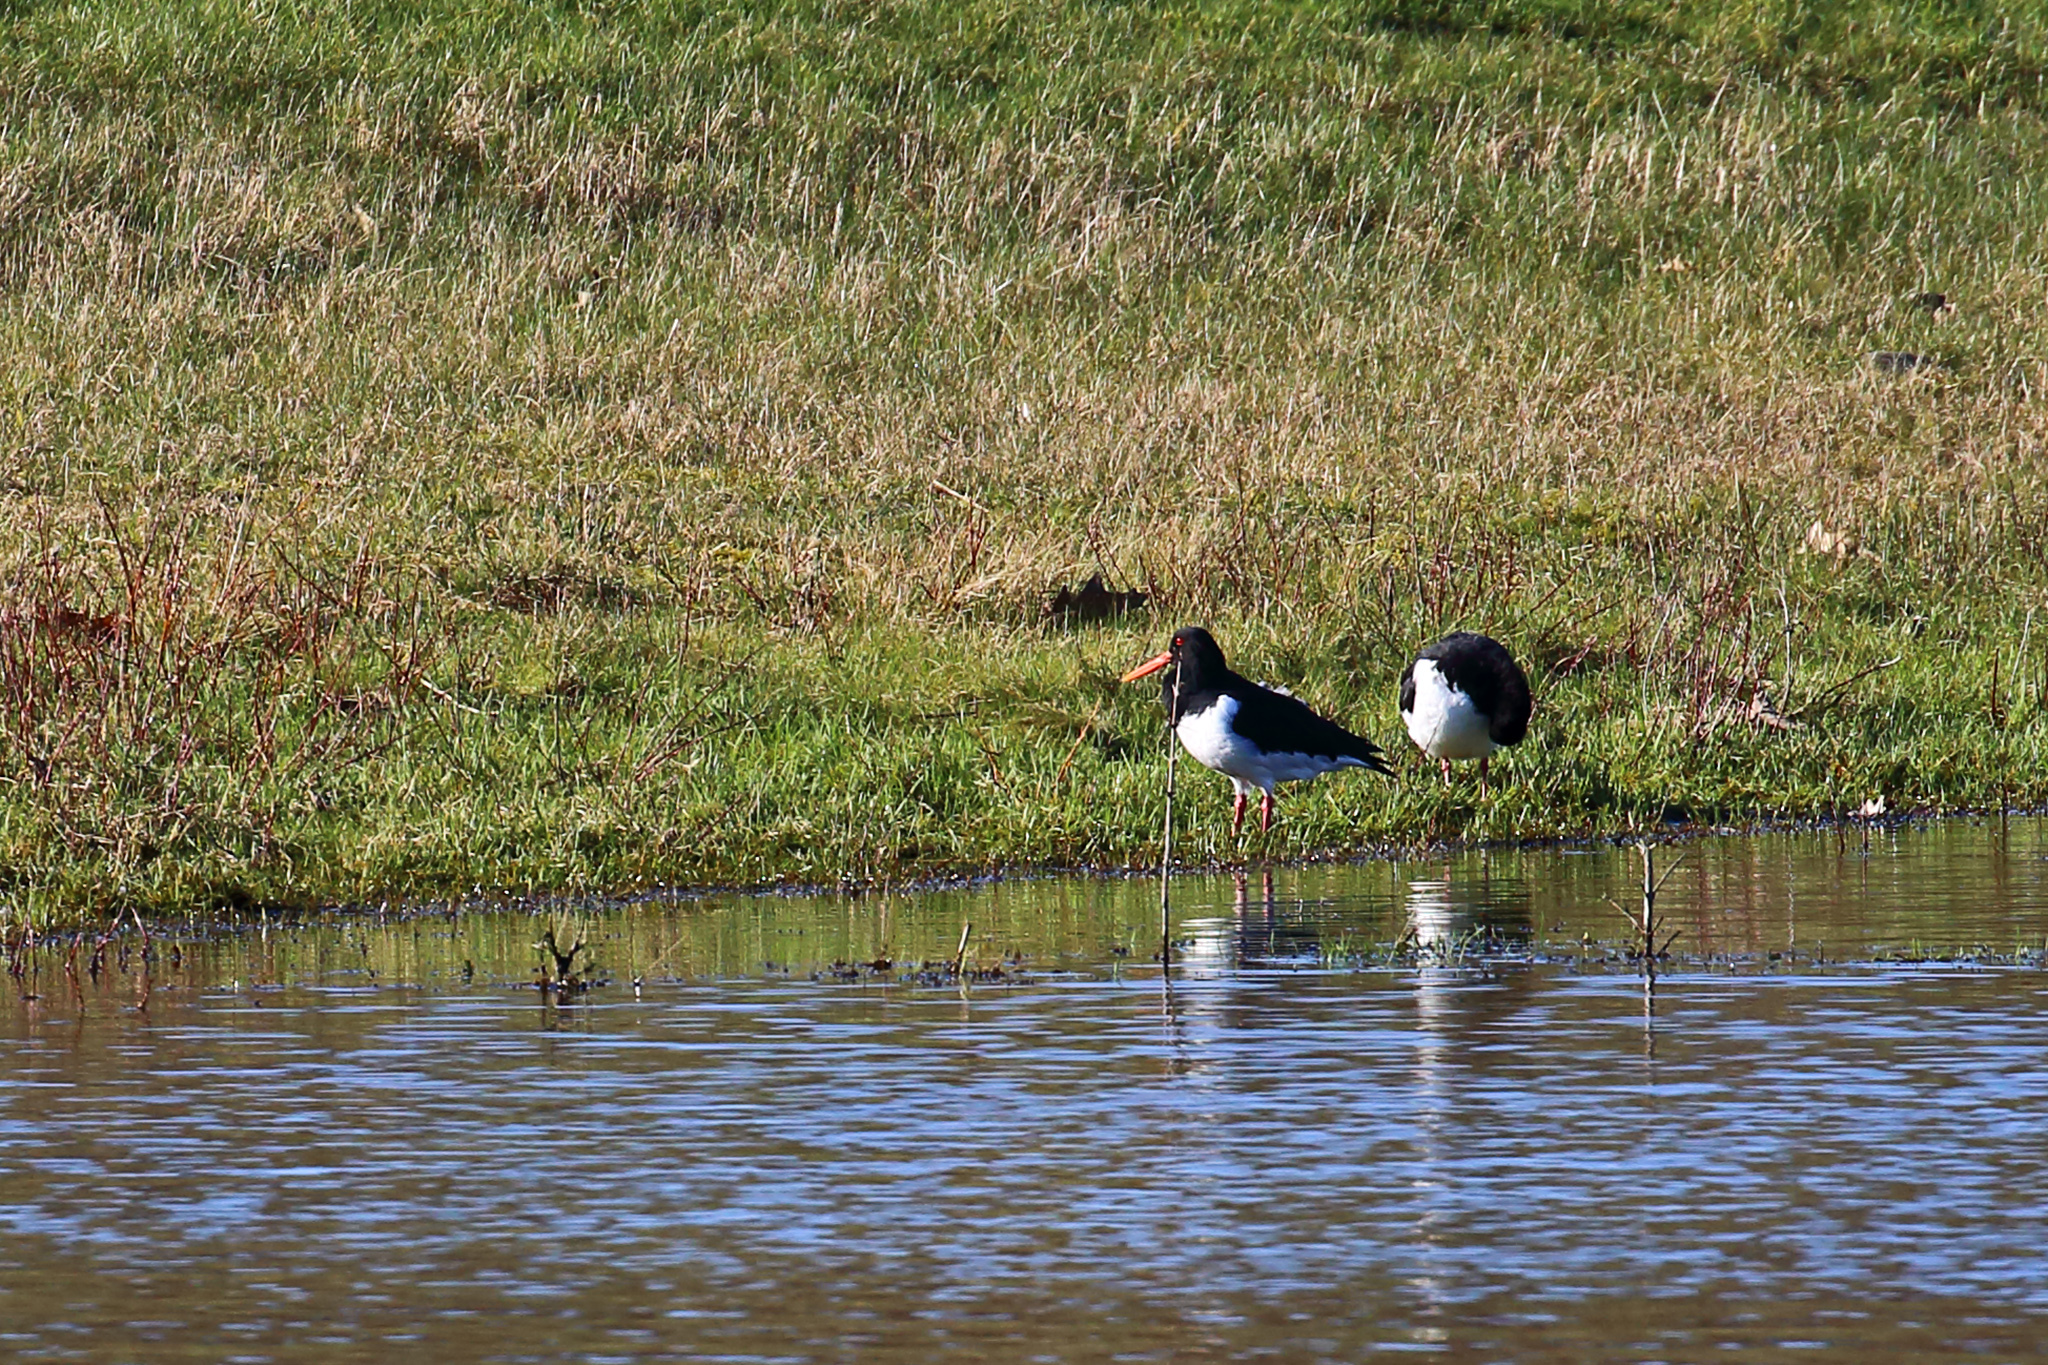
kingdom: Animalia
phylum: Chordata
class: Aves
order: Charadriiformes
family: Haematopodidae
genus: Haematopus
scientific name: Haematopus ostralegus
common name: Eurasian oystercatcher
